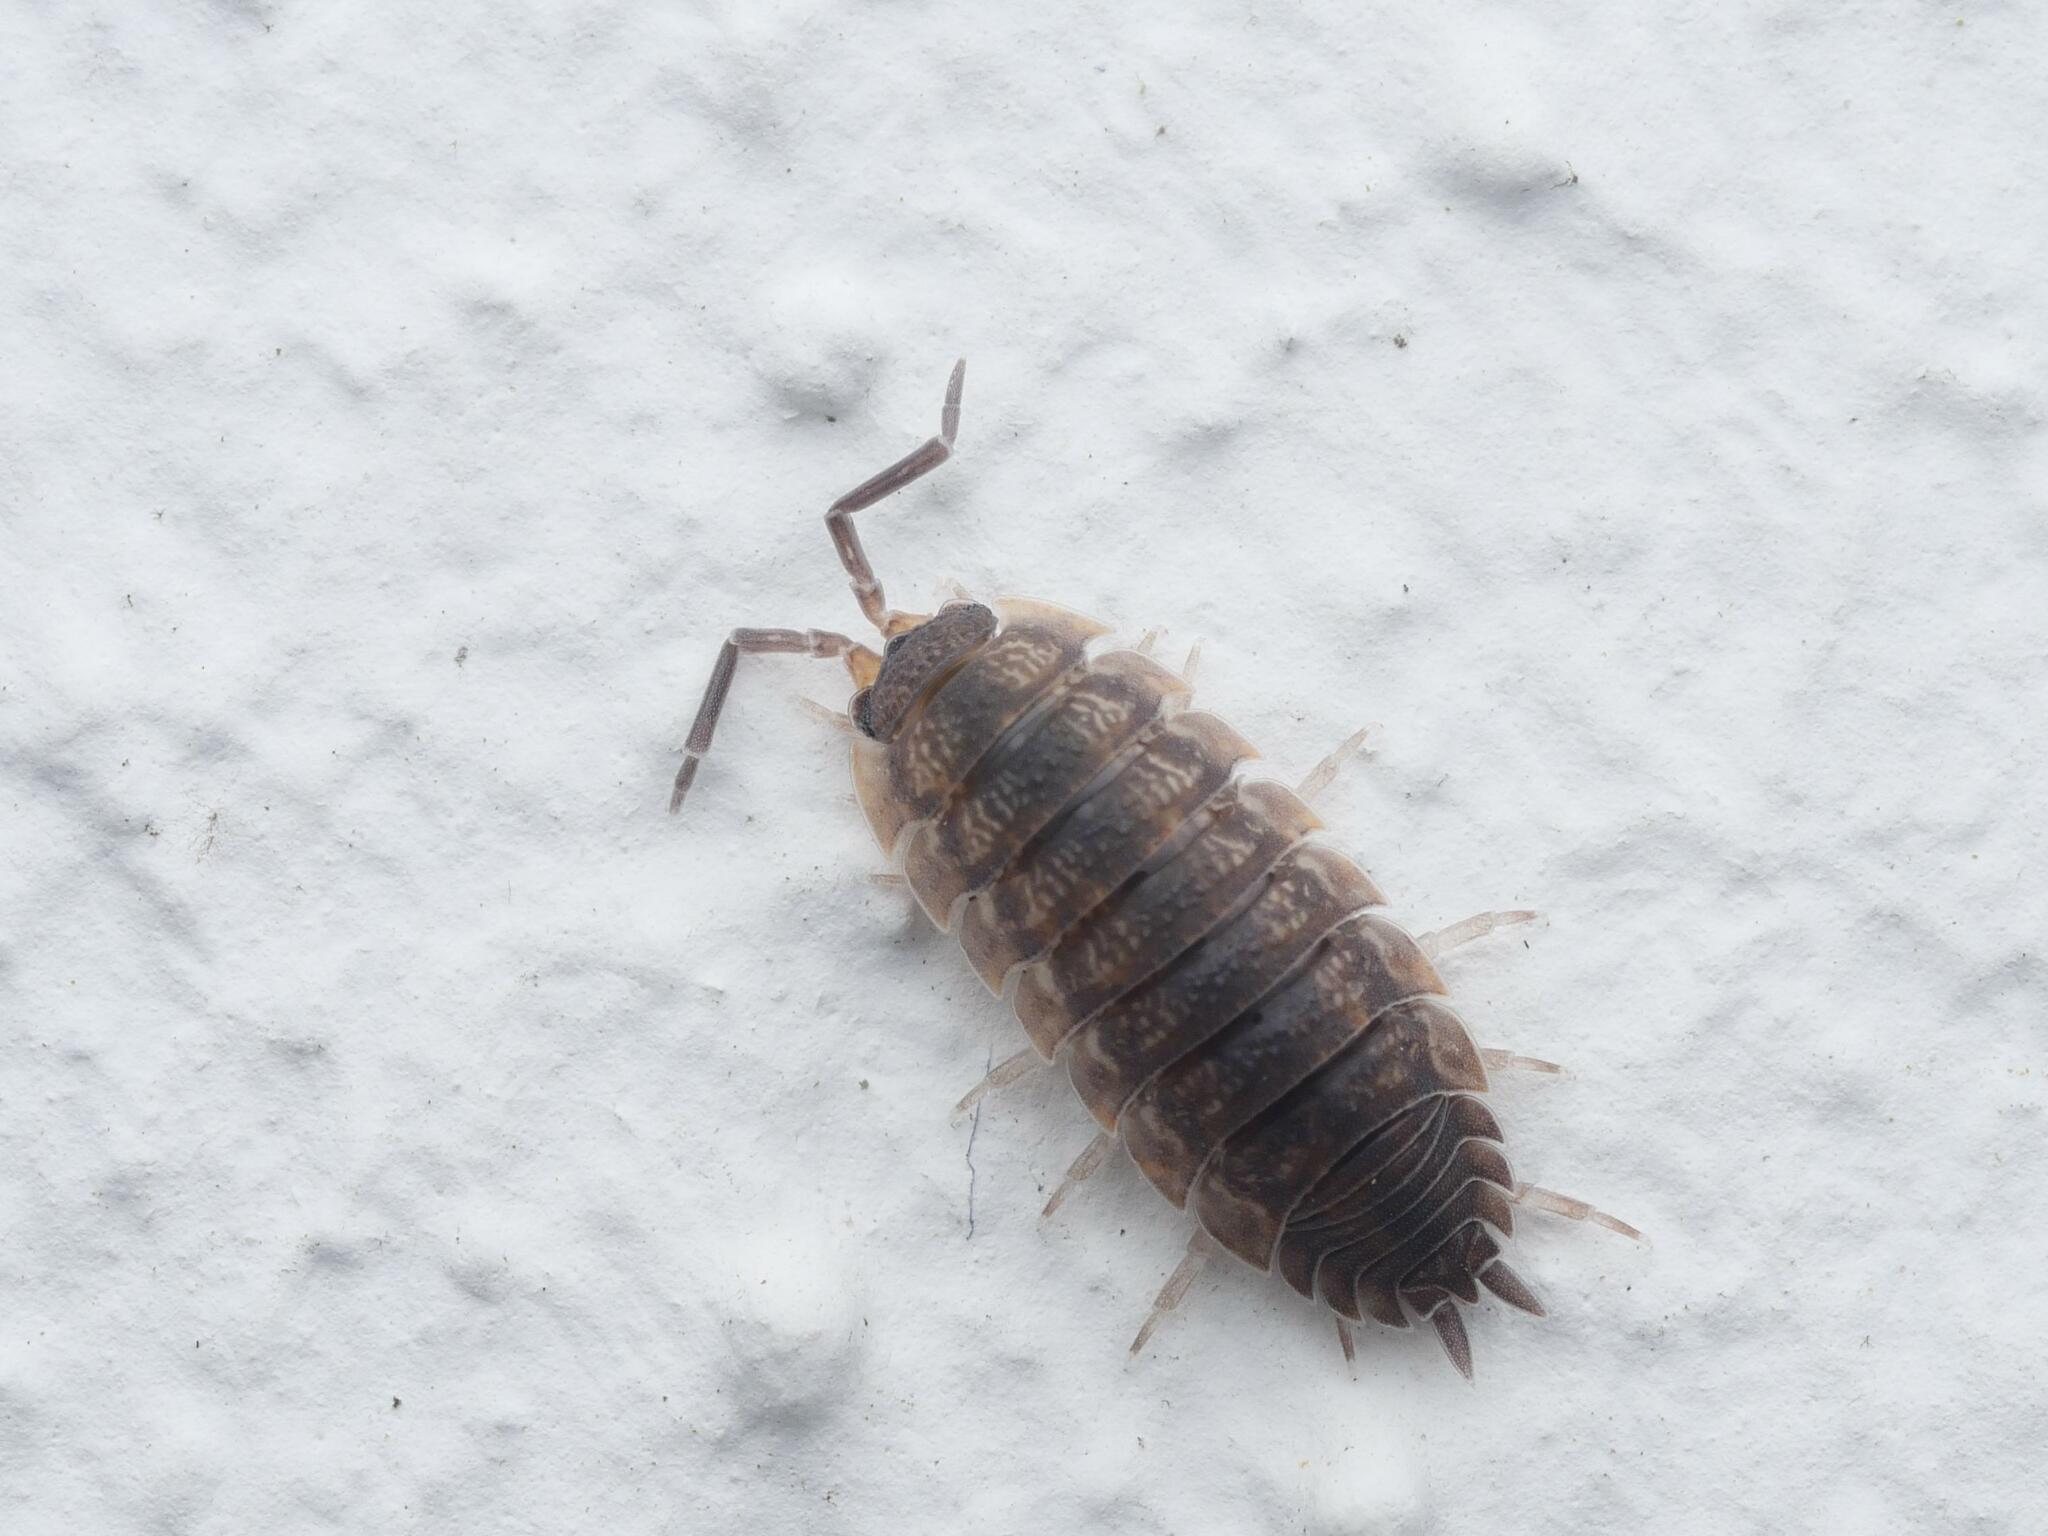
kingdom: Animalia
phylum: Arthropoda
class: Malacostraca
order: Isopoda
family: Porcellionidae
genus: Porcellio
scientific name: Porcellio scaber
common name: Common rough woodlouse
